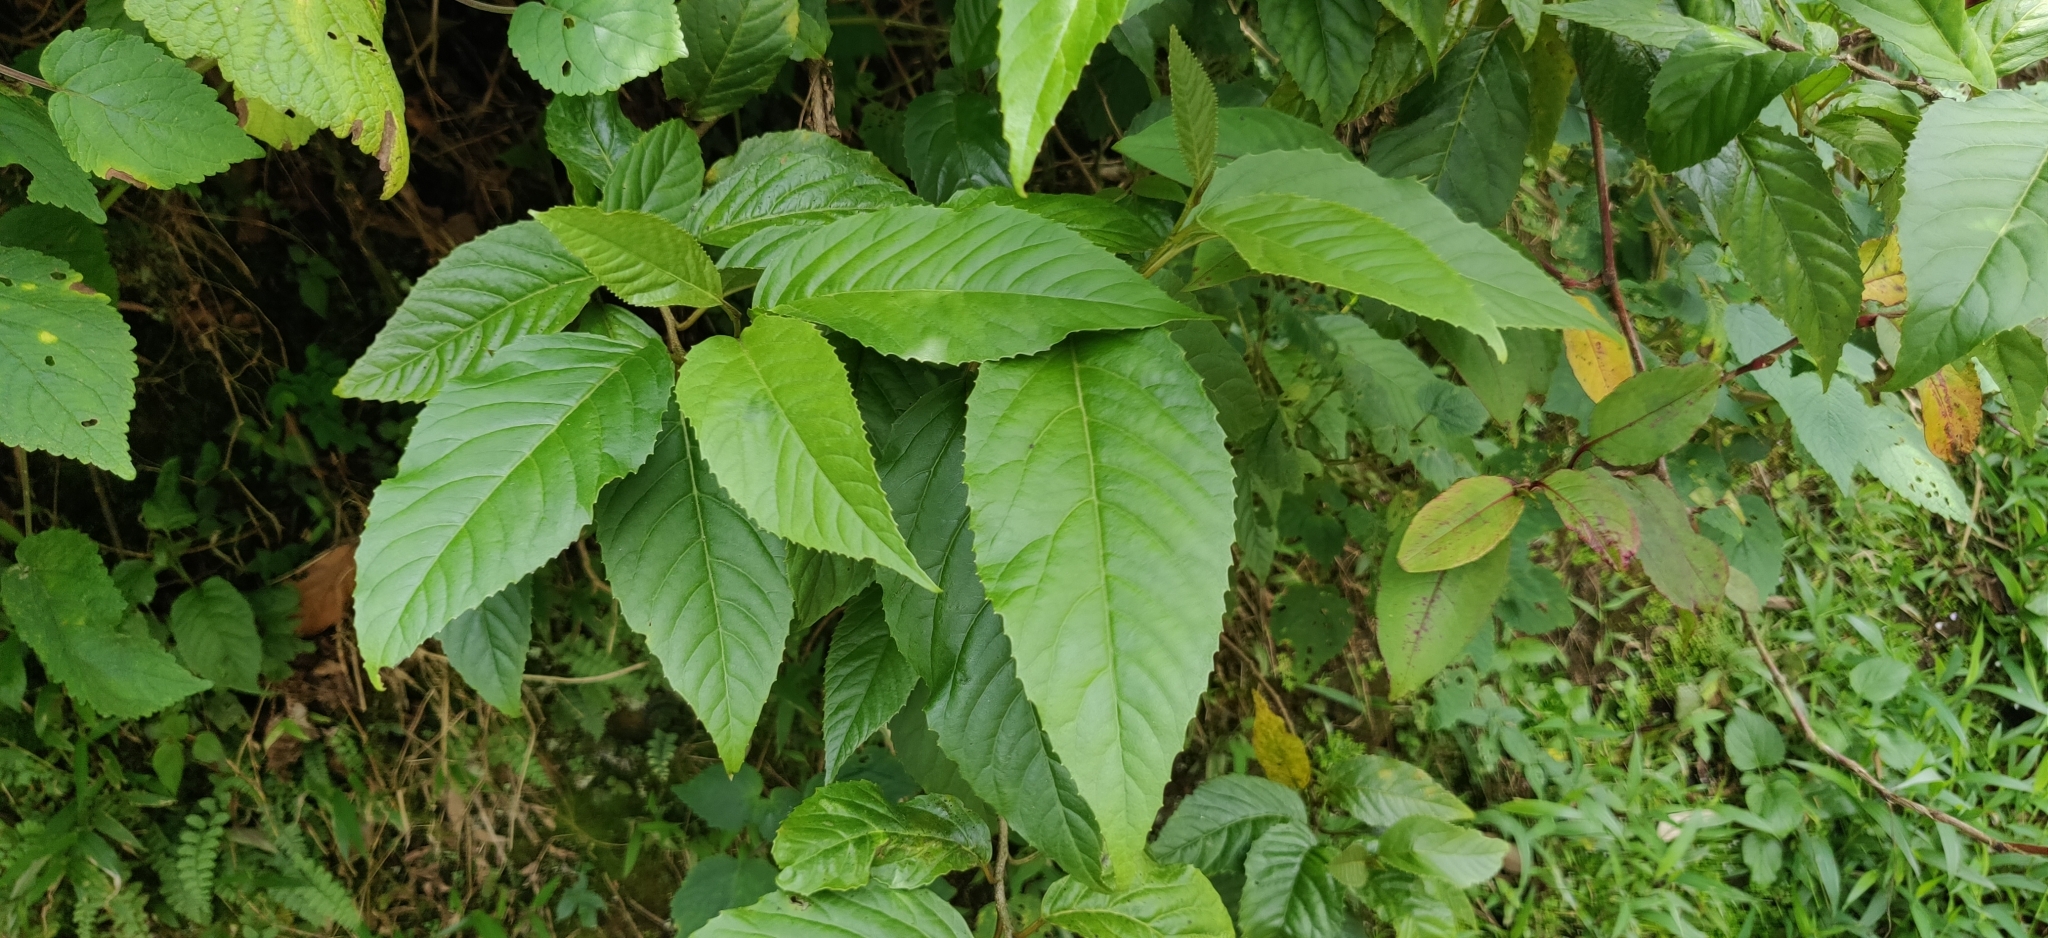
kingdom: Plantae
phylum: Tracheophyta
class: Magnoliopsida
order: Ericales
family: Primulaceae
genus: Maesa
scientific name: Maesa indica
